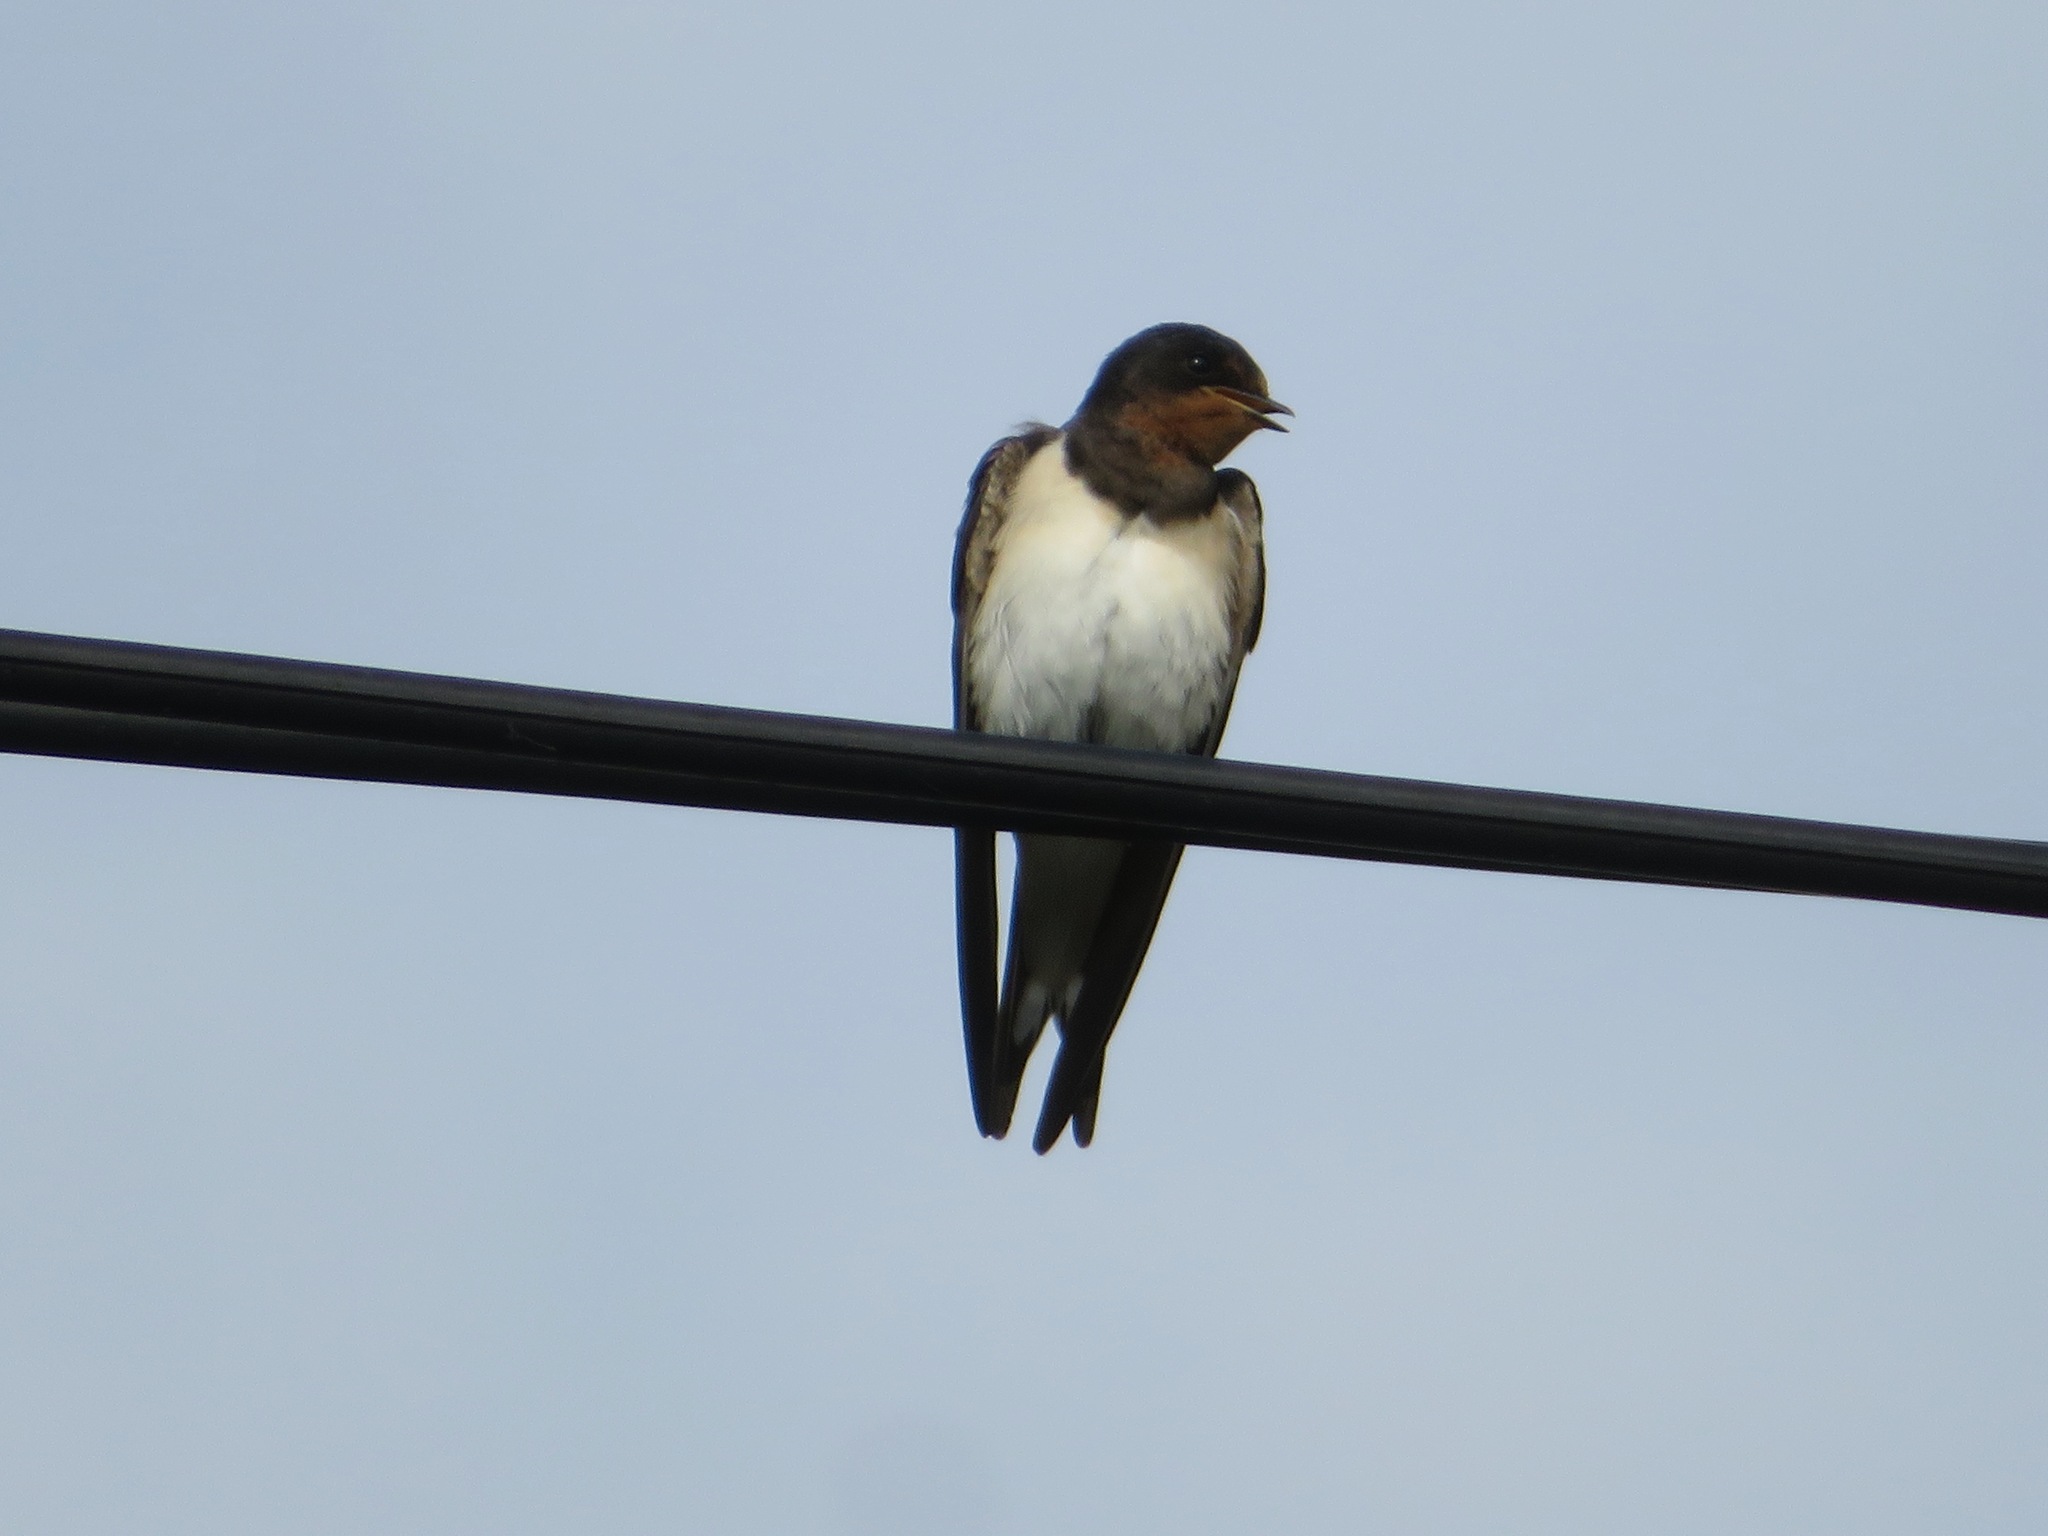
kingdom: Animalia
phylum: Chordata
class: Aves
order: Passeriformes
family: Hirundinidae
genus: Hirundo
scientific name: Hirundo rustica
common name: Barn swallow
